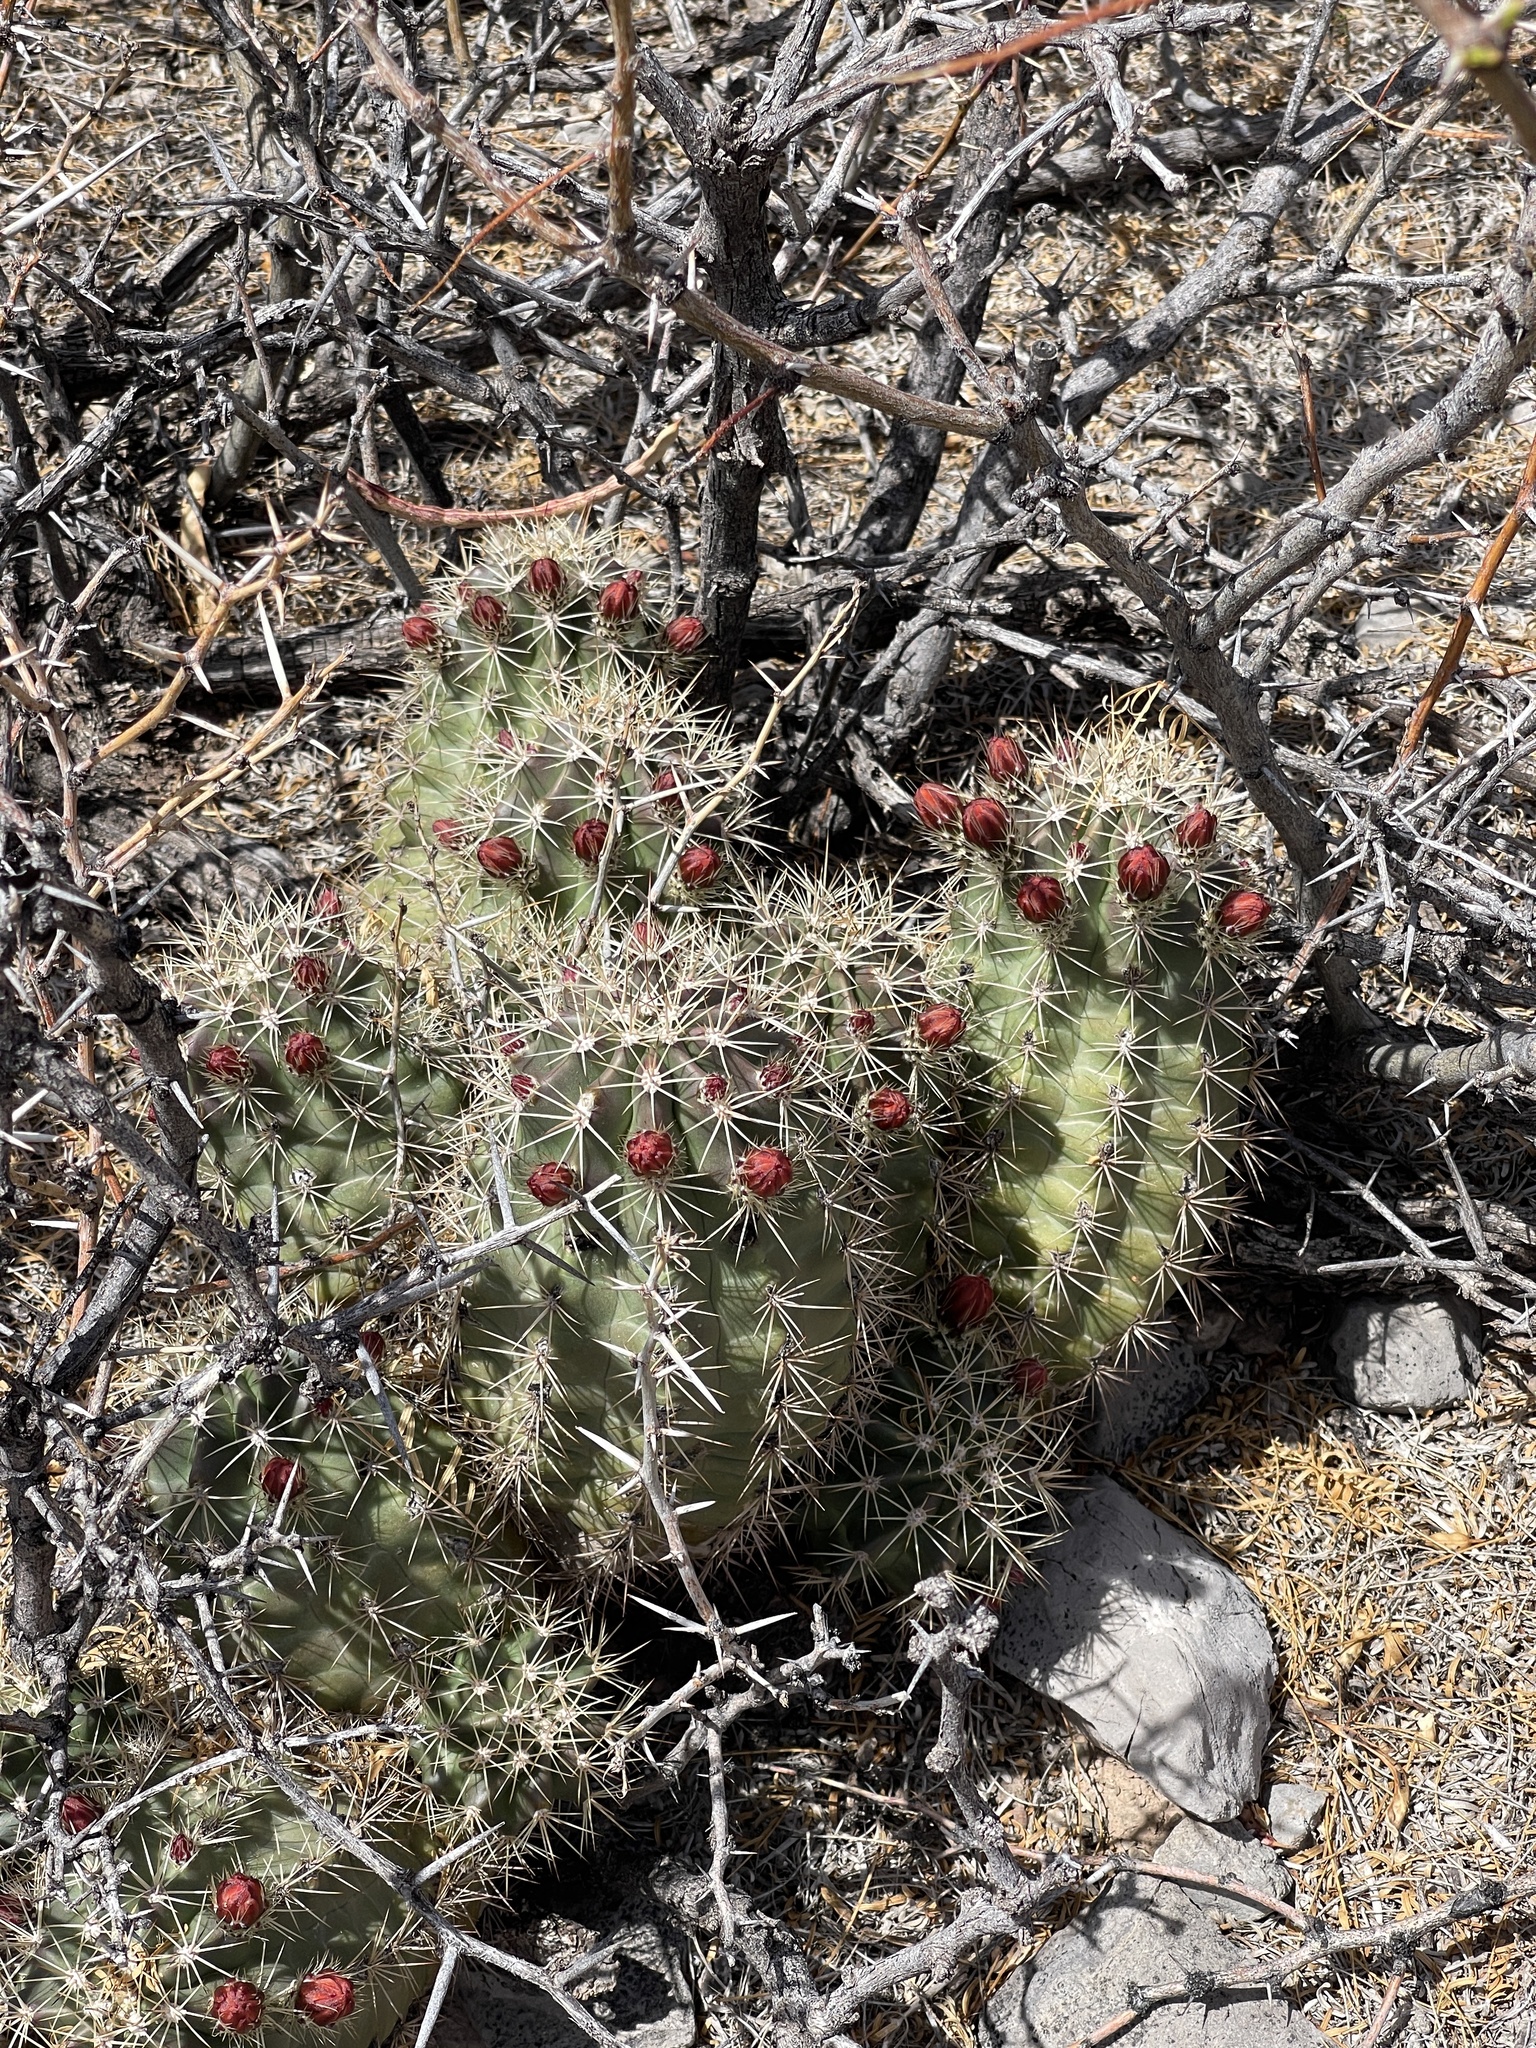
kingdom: Plantae
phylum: Tracheophyta
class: Magnoliopsida
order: Caryophyllales
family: Cactaceae
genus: Echinocereus
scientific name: Echinocereus coccineus
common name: Scarlet hedgehog cactus
